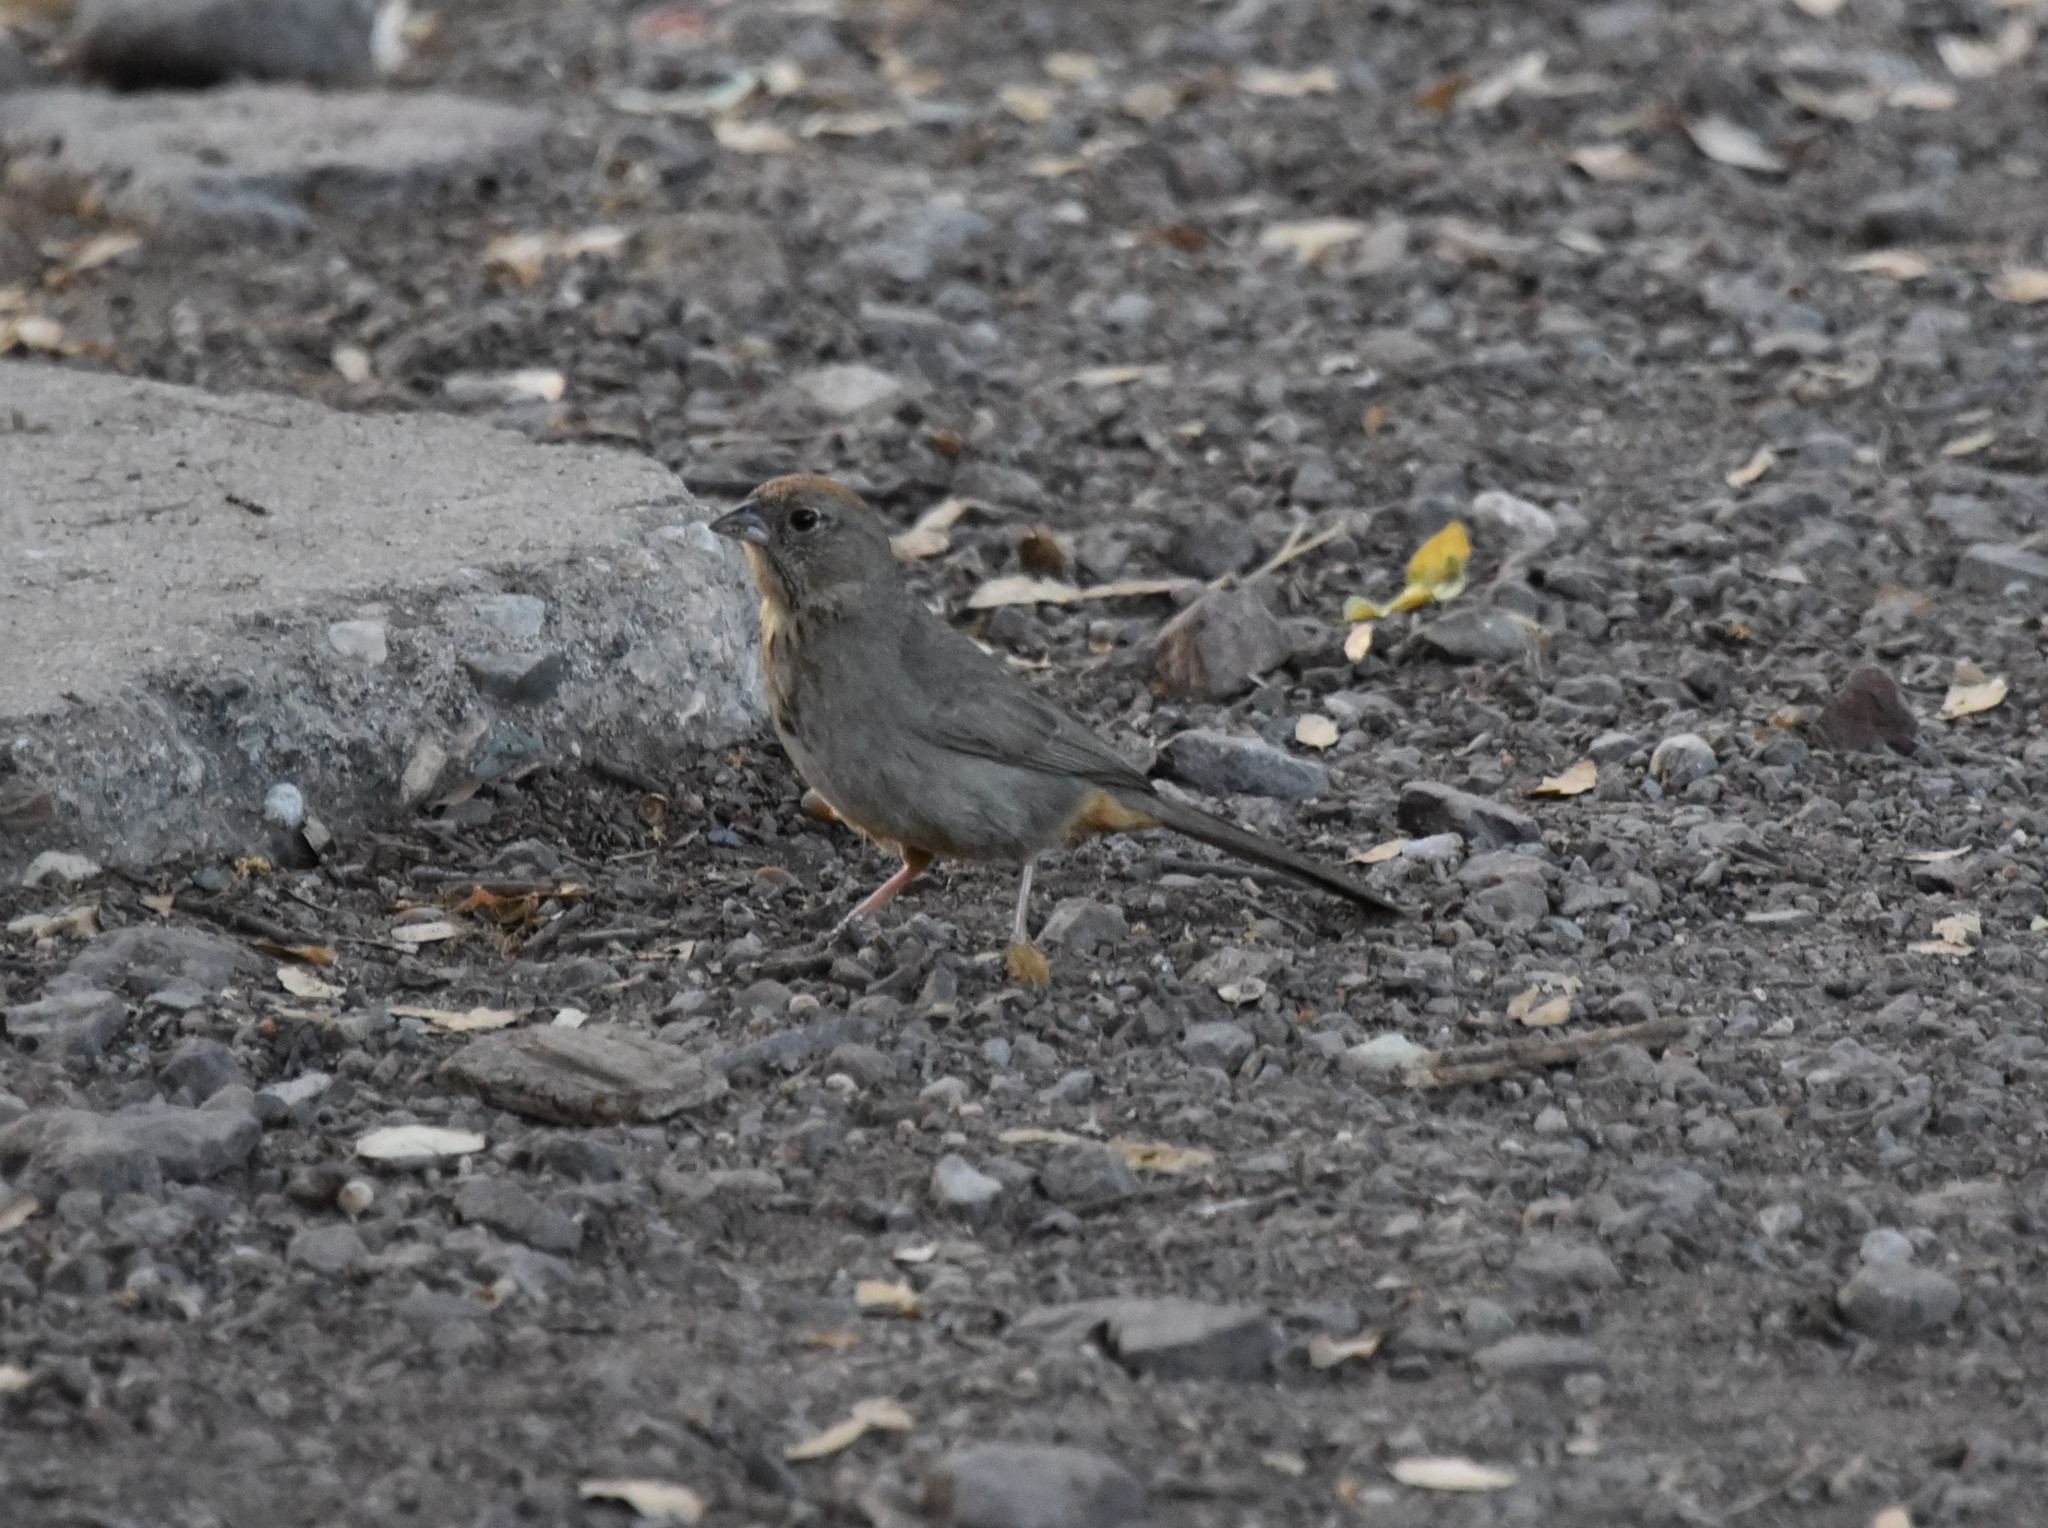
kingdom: Animalia
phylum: Chordata
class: Aves
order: Passeriformes
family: Passerellidae
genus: Melozone
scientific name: Melozone fusca
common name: Canyon towhee
